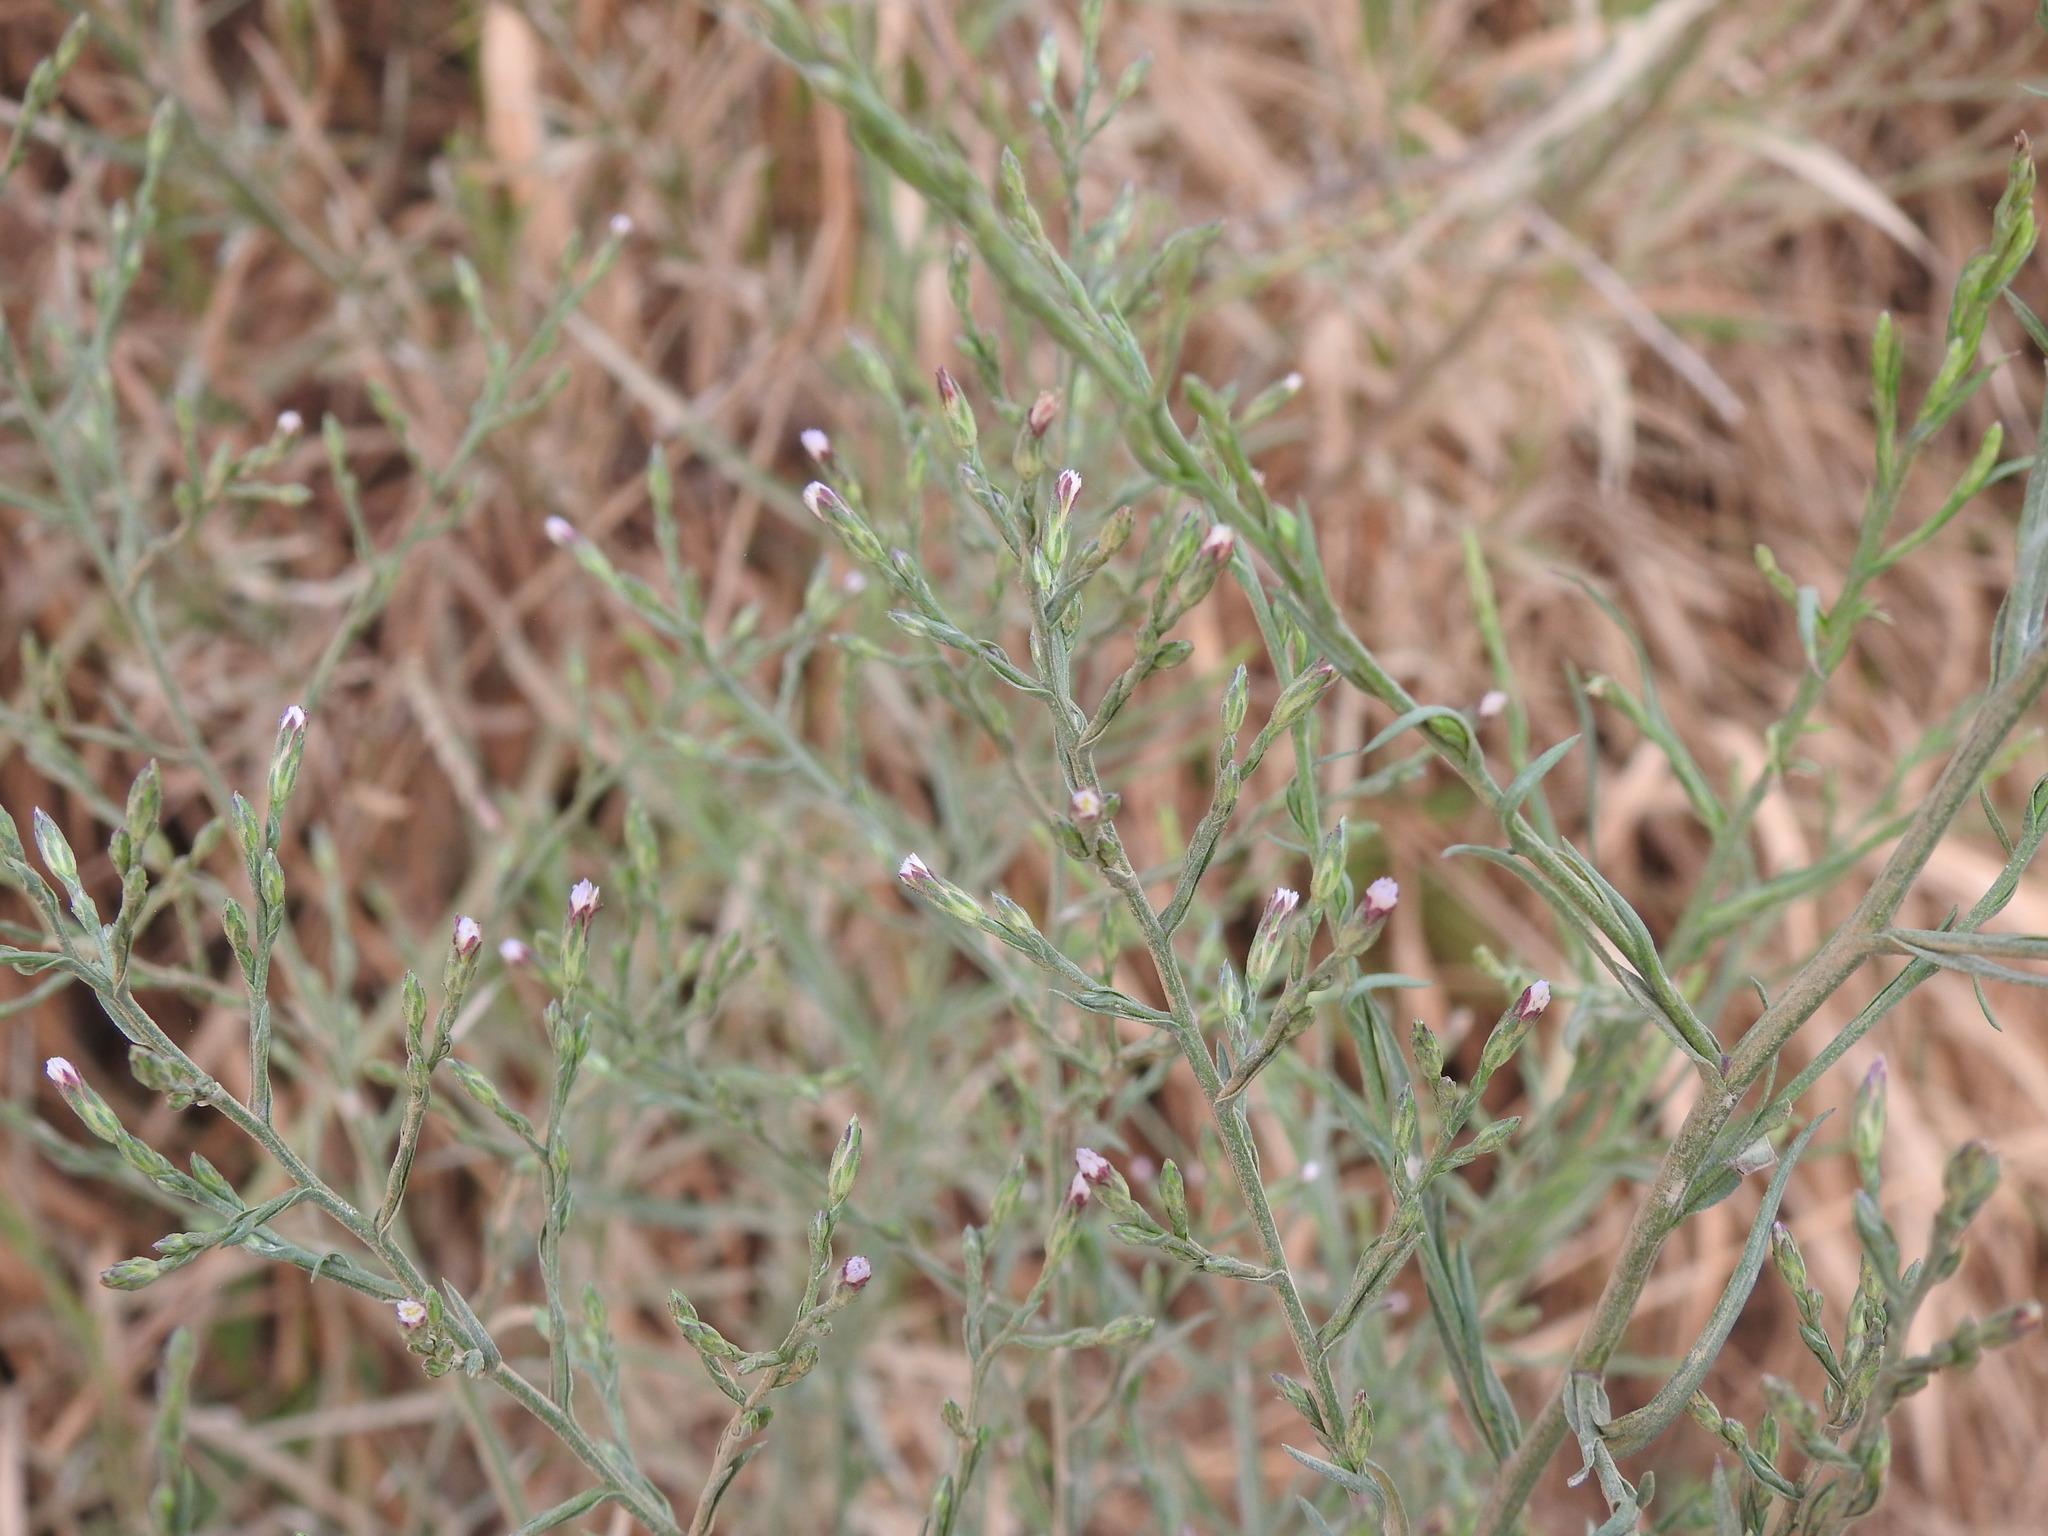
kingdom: Plantae
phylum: Tracheophyta
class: Magnoliopsida
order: Asterales
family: Asteraceae
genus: Symphyotrichum
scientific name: Symphyotrichum squamatum
